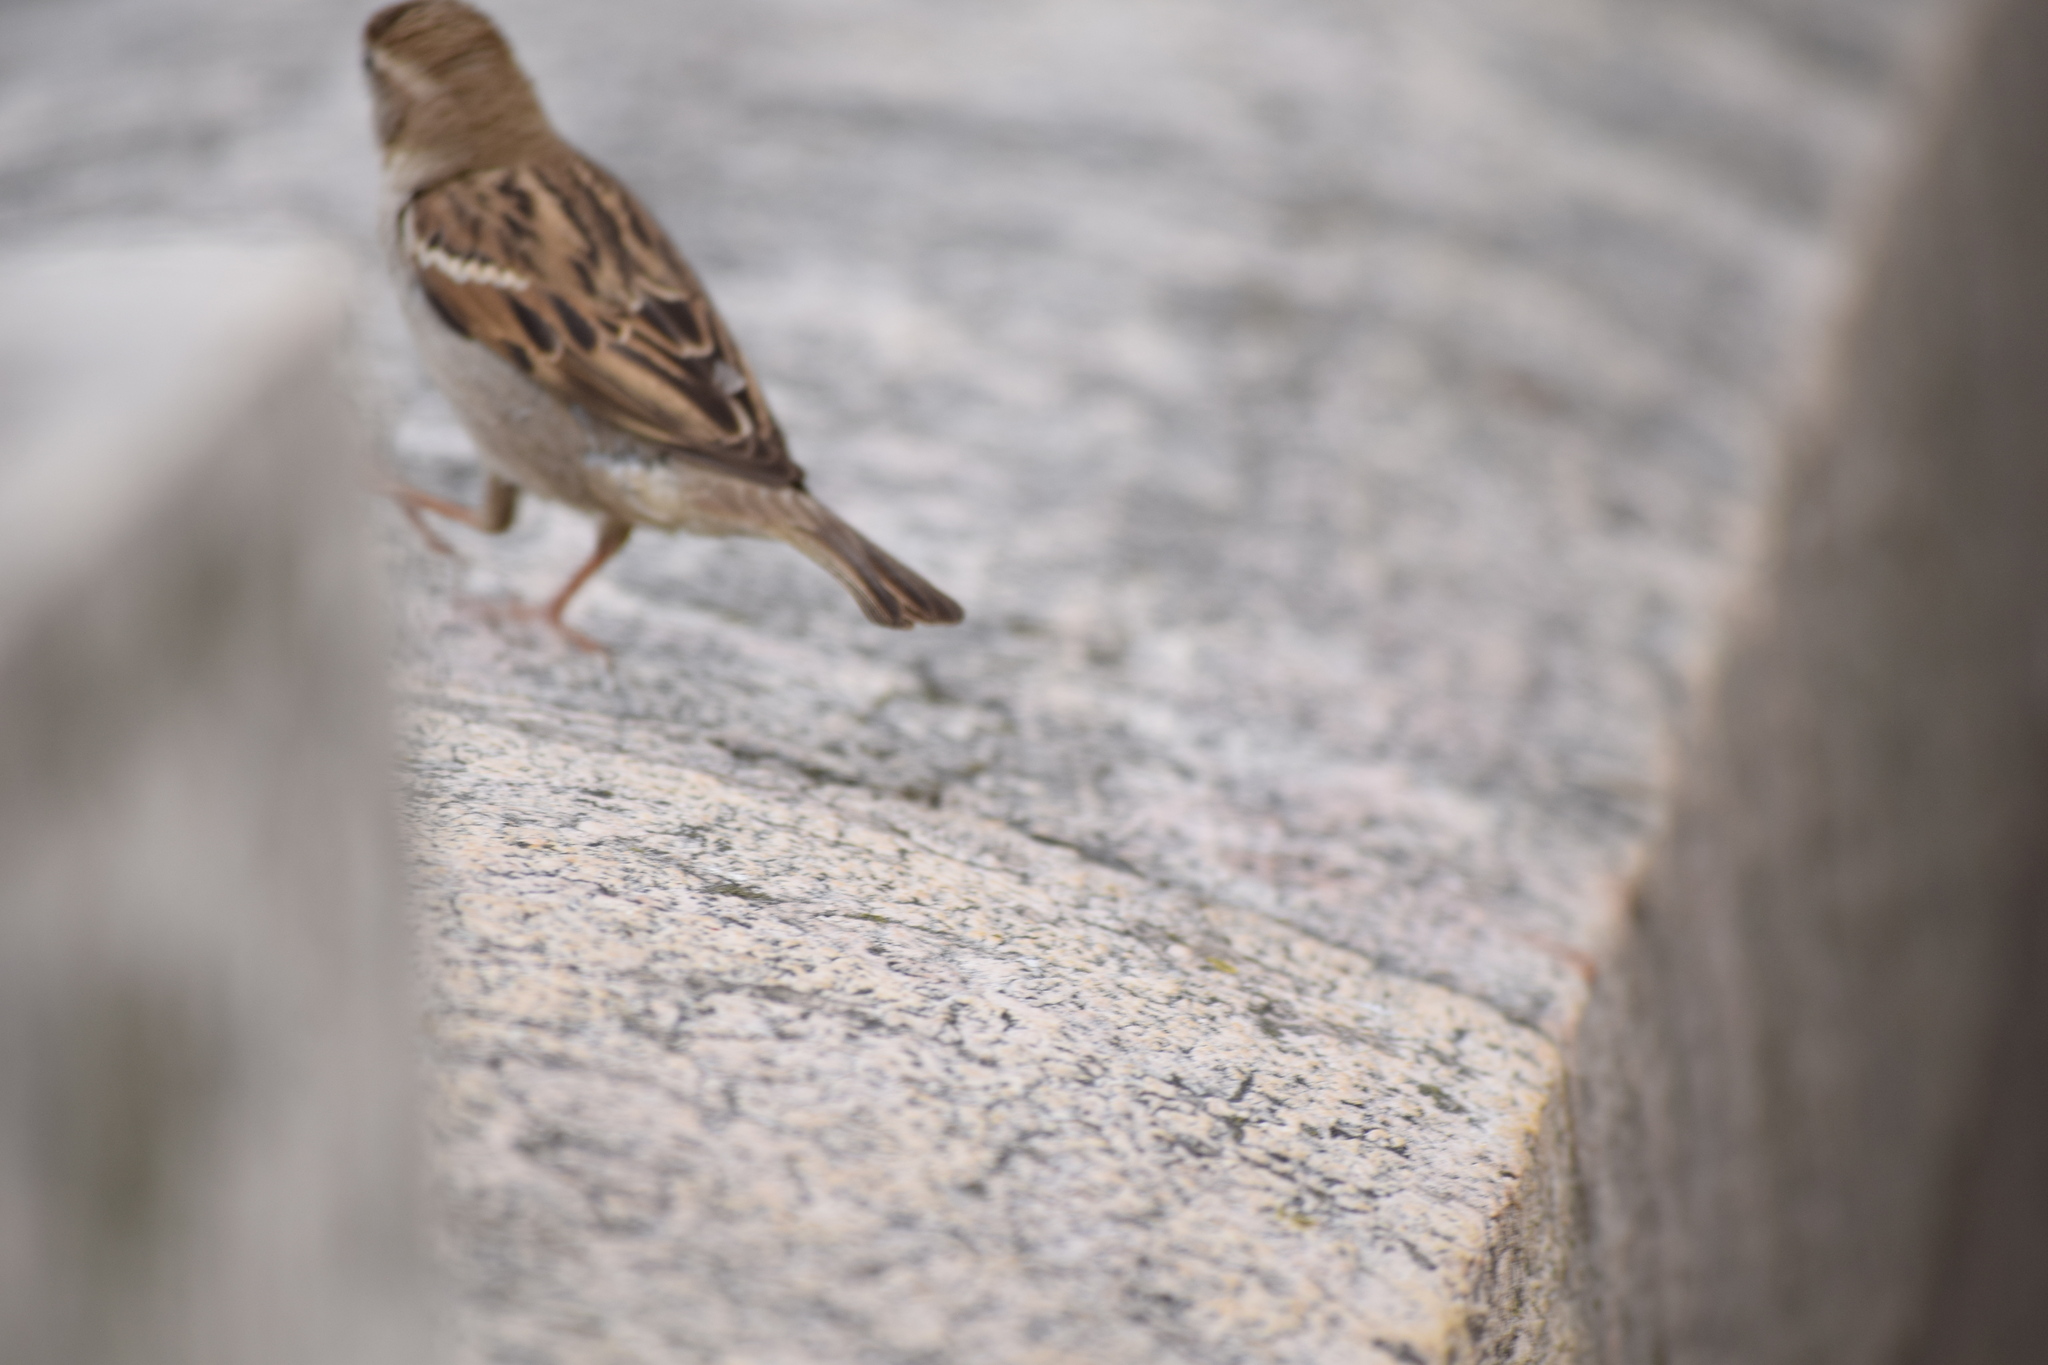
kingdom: Animalia
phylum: Chordata
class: Aves
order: Passeriformes
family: Passeridae
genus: Passer
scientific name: Passer italiae
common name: Italian sparrow
